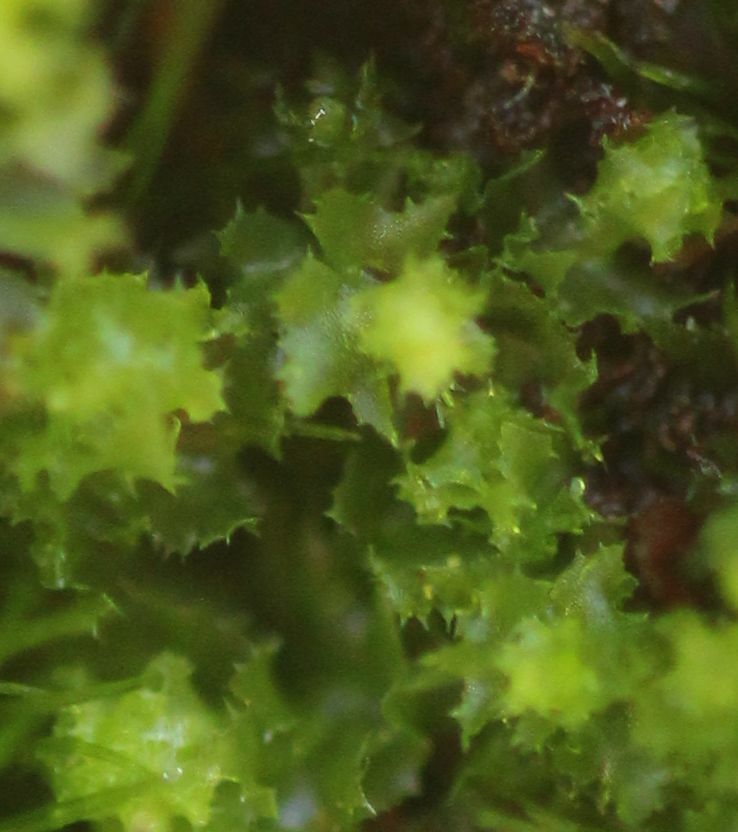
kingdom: Plantae
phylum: Marchantiophyta
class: Jungermanniopsida
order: Jungermanniales
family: Cephaloziellaceae
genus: Chaetophyllopsis
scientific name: Chaetophyllopsis whiteleggei
